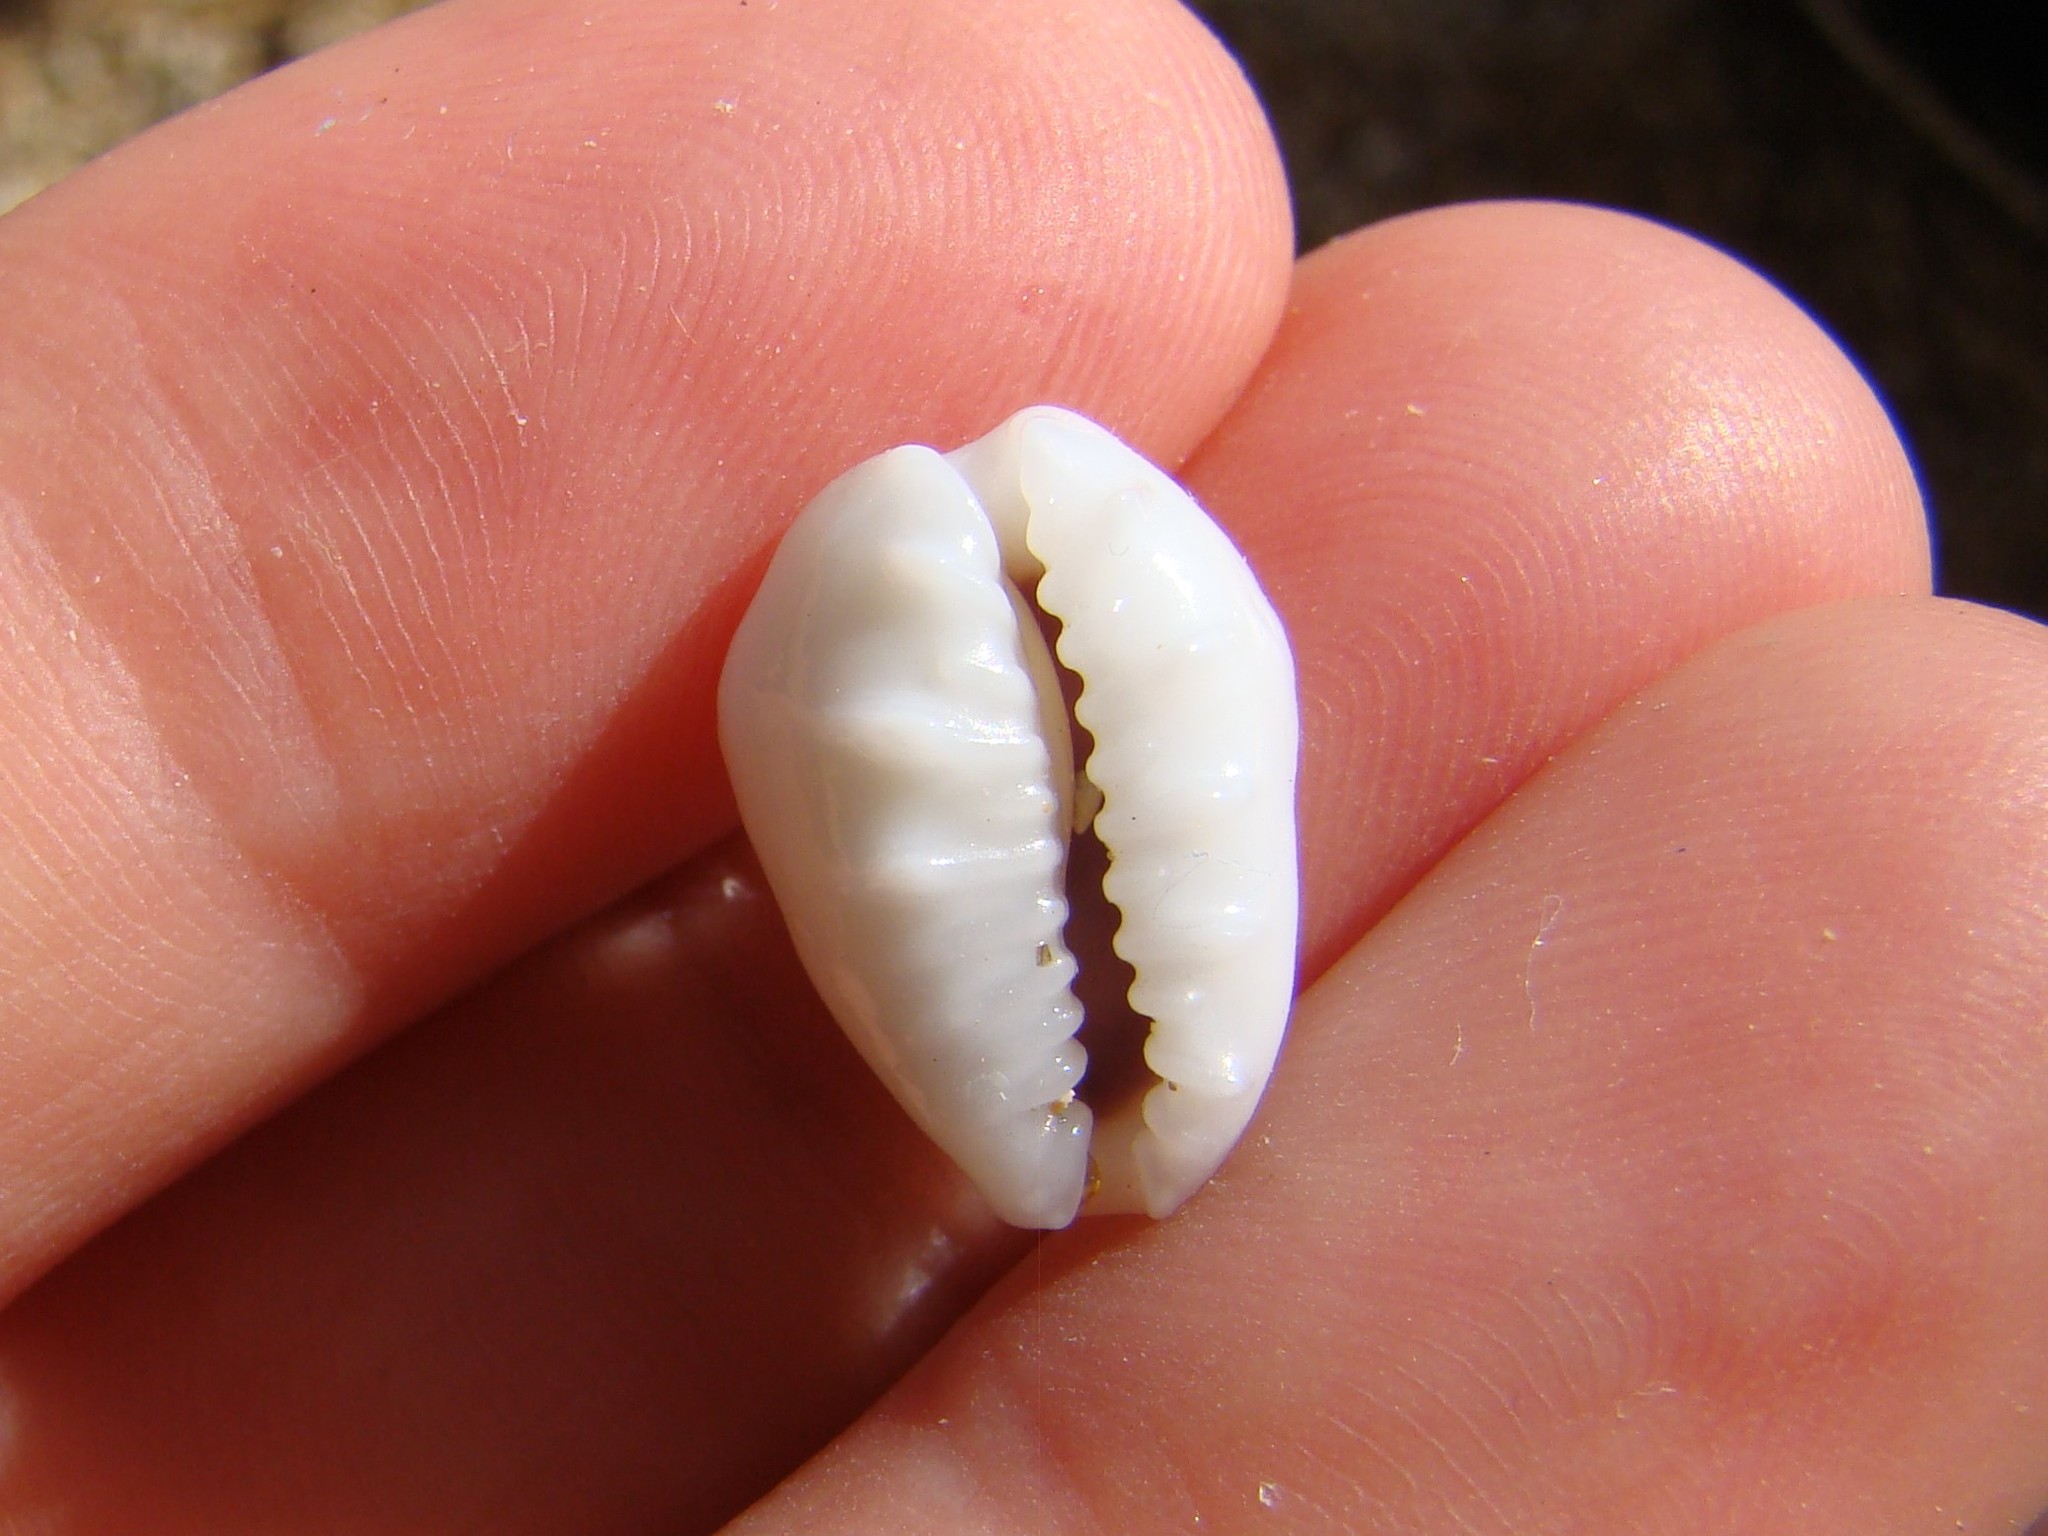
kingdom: Animalia
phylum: Mollusca
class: Gastropoda
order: Littorinimorpha
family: Cypraeidae
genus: Monetaria
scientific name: Monetaria moneta
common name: Money cowrie
